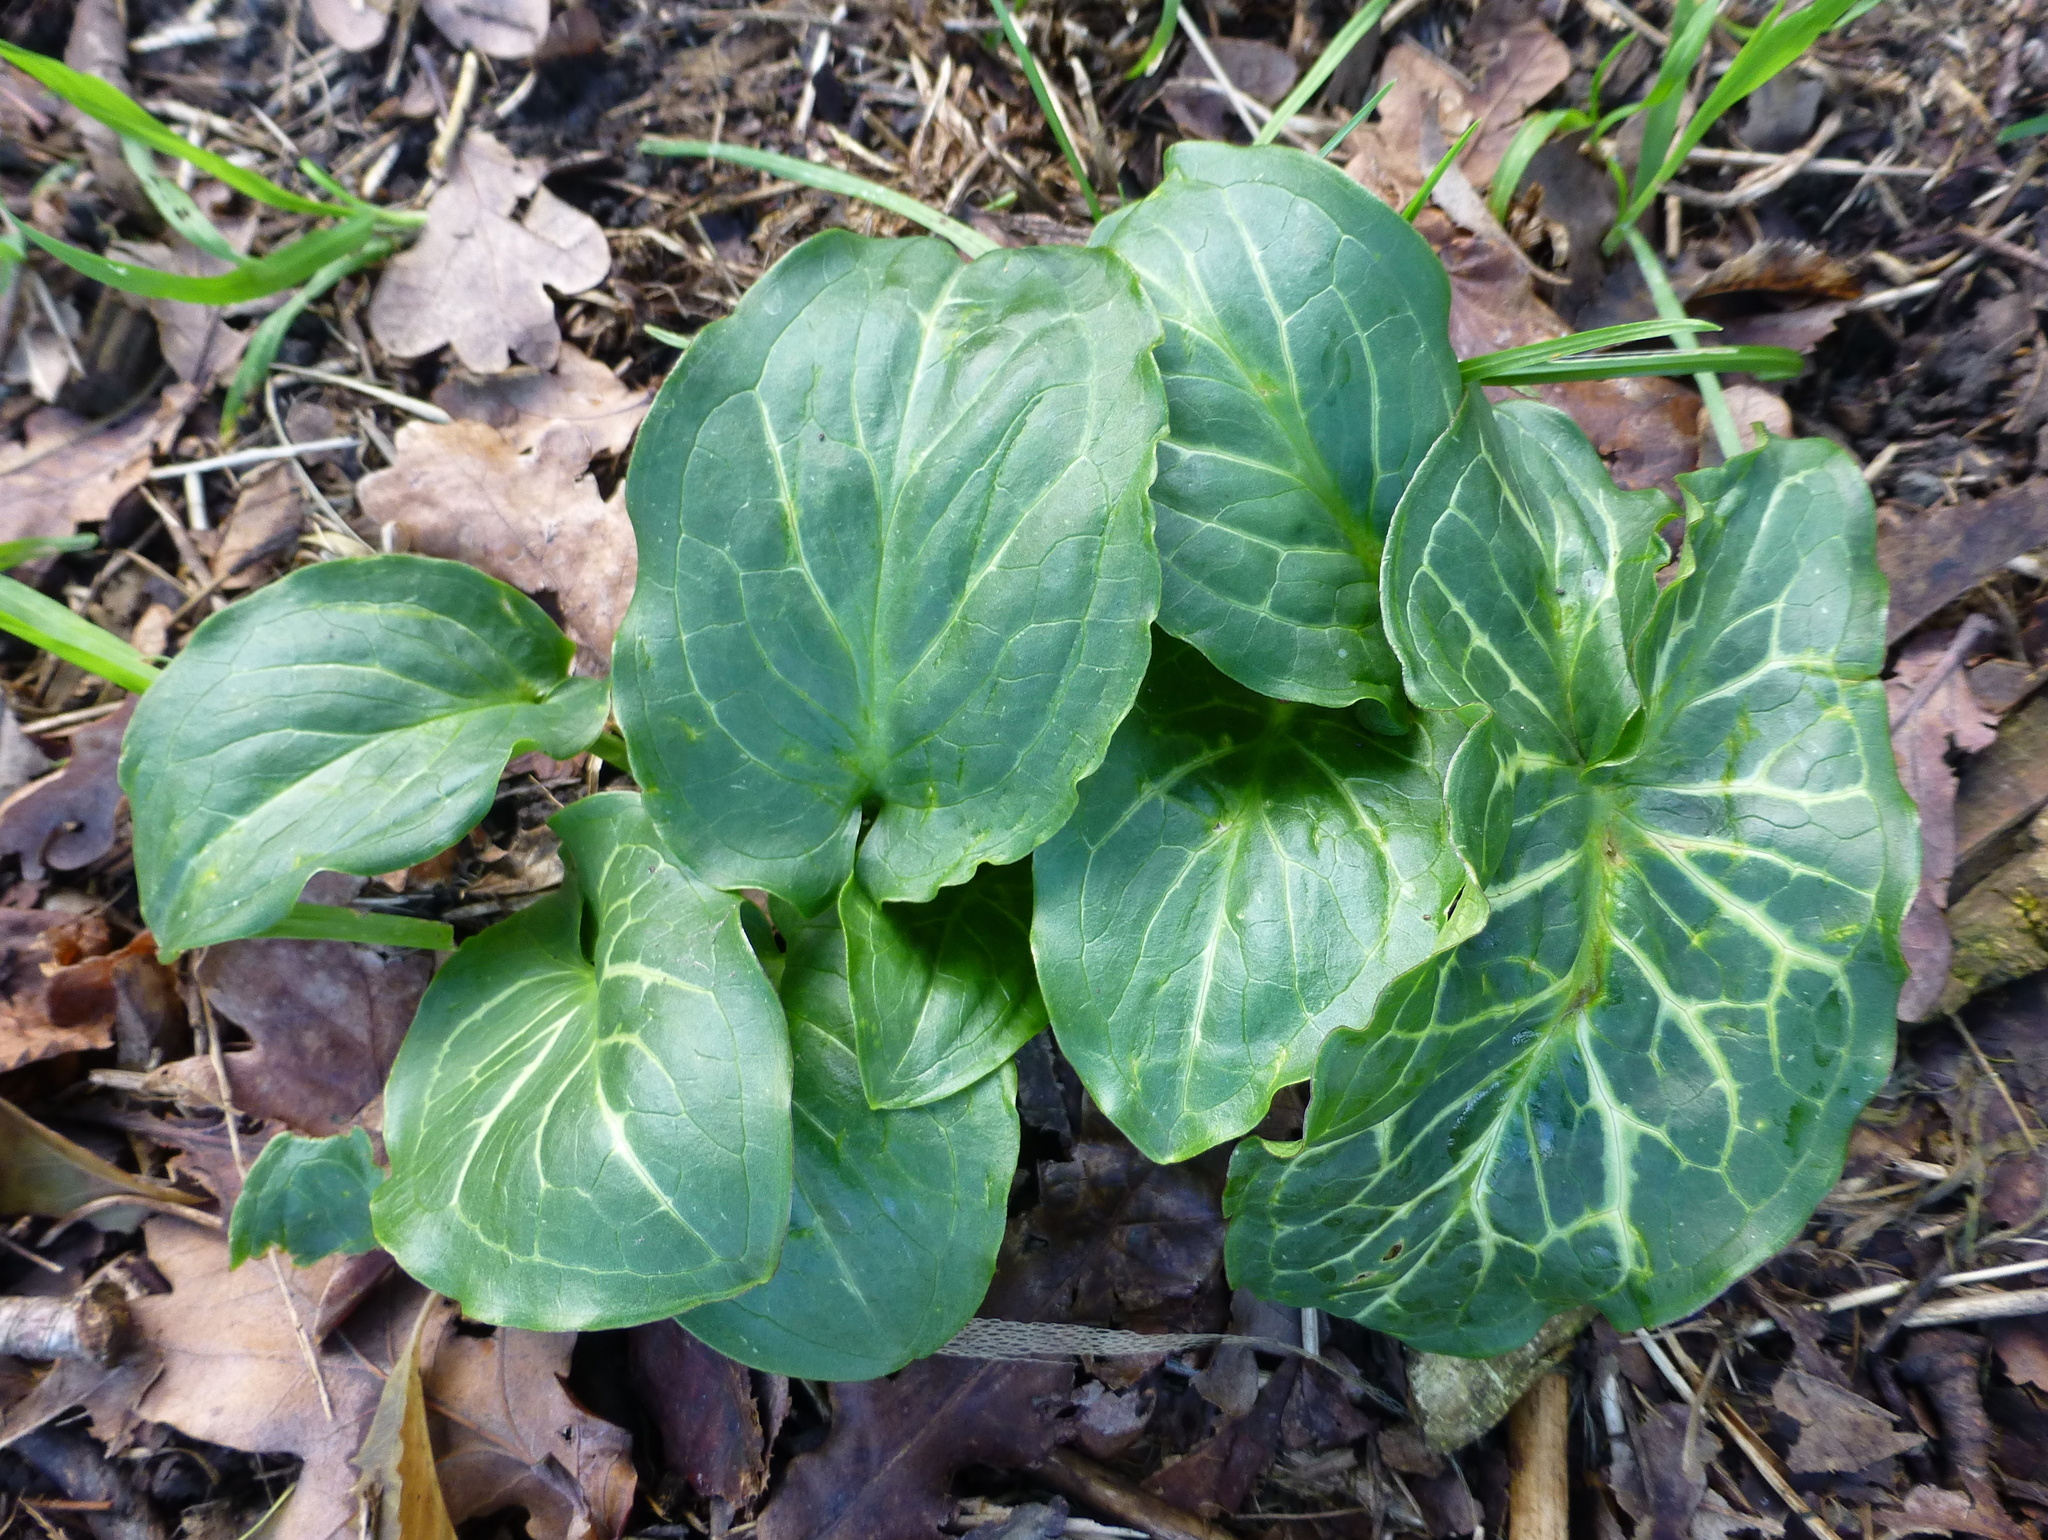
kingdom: Plantae
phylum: Tracheophyta
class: Liliopsida
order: Alismatales
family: Araceae
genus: Arum
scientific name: Arum italicum
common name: Italian lords-and-ladies
